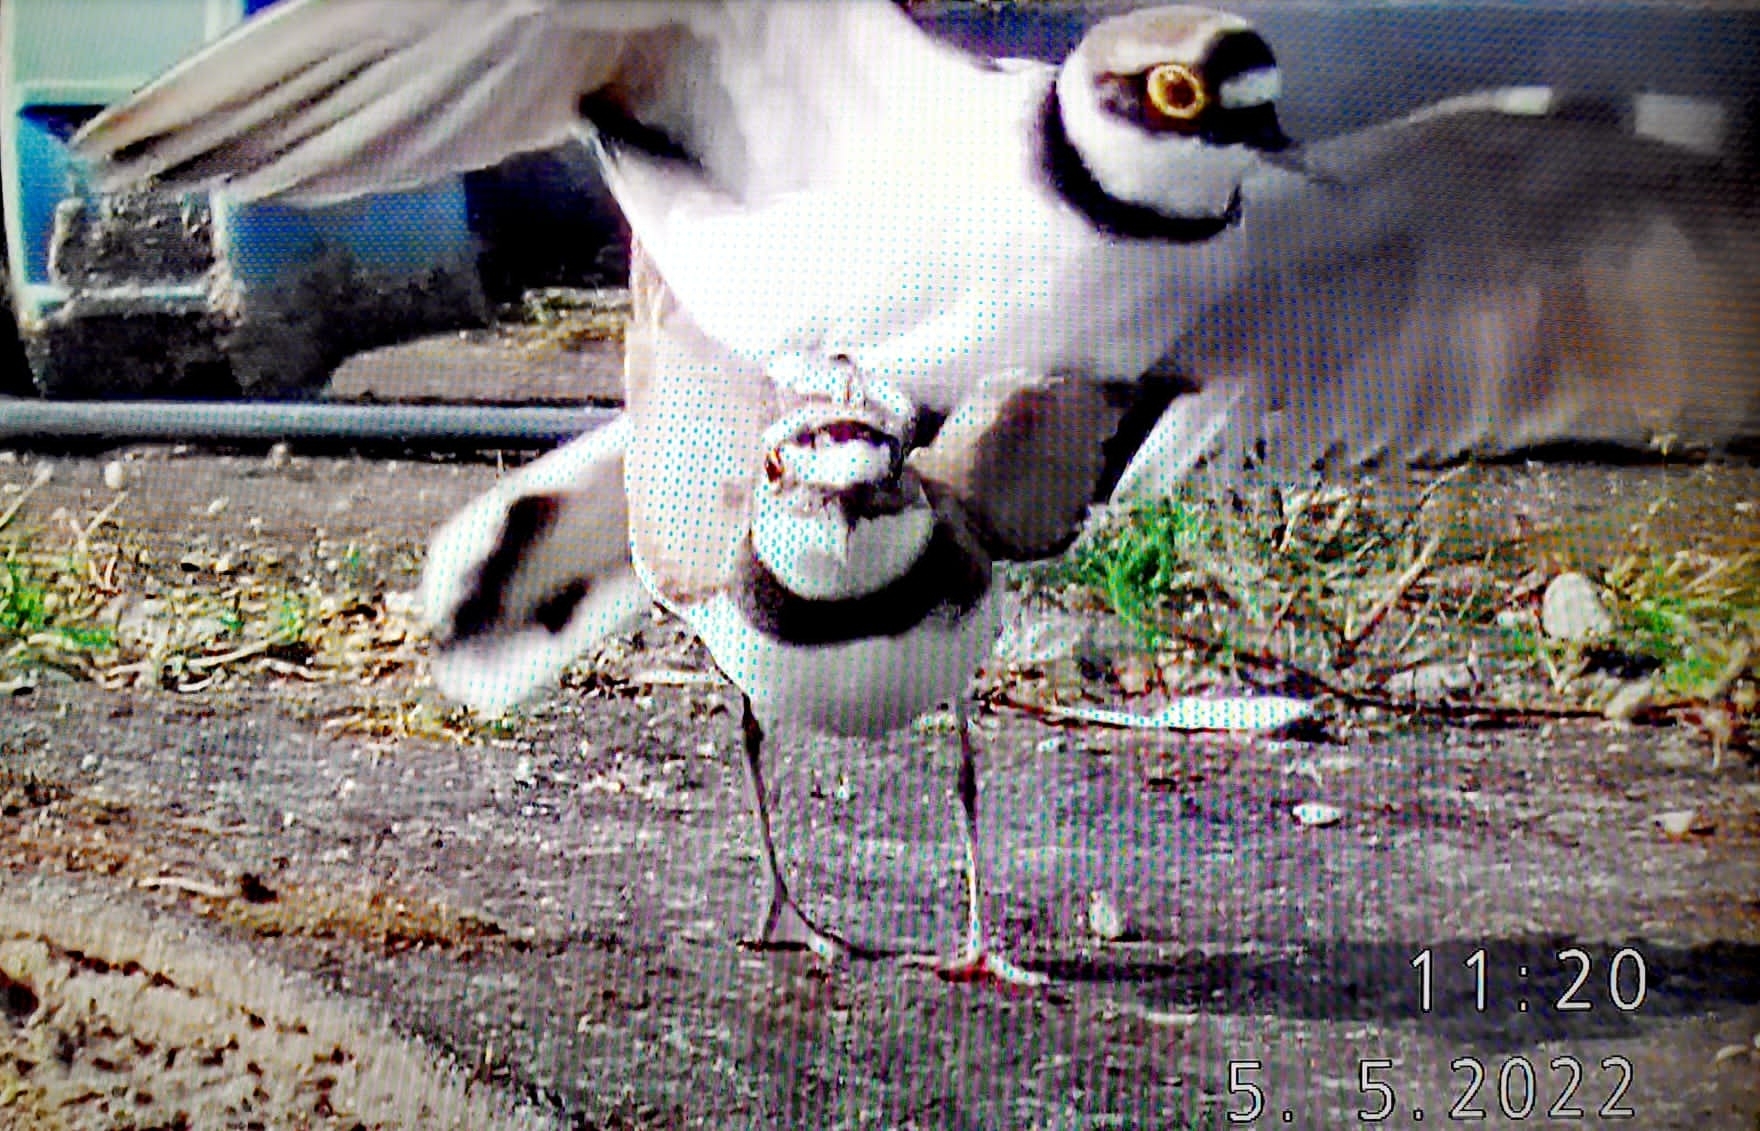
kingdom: Animalia
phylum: Chordata
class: Aves
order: Charadriiformes
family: Charadriidae
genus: Charadrius
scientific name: Charadrius dubius
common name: Little ringed plover
